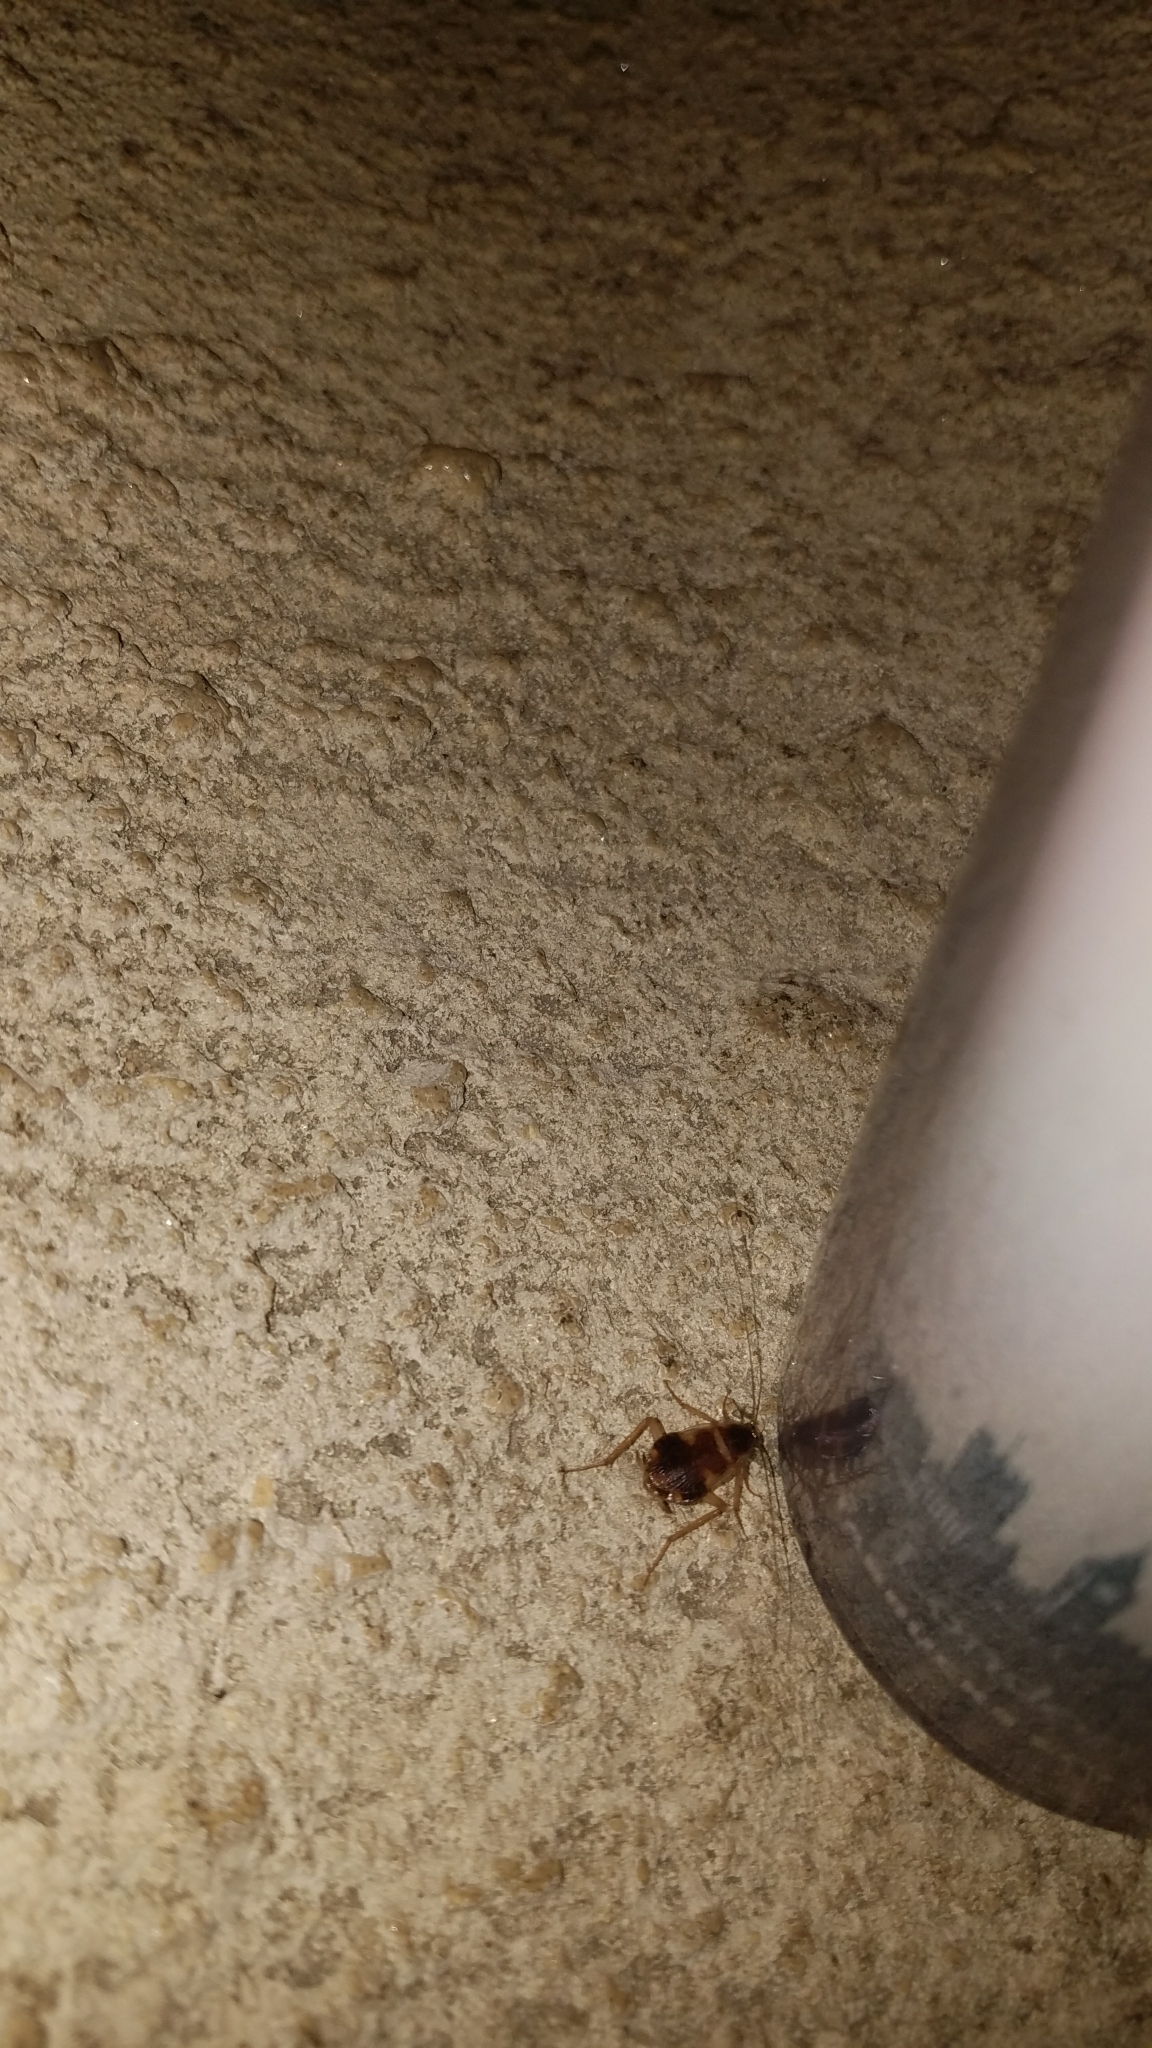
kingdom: Animalia
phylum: Arthropoda
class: Insecta
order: Blattodea
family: Ectobiidae
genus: Supella
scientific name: Supella longipalpa
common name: Brown-banded cockroach
